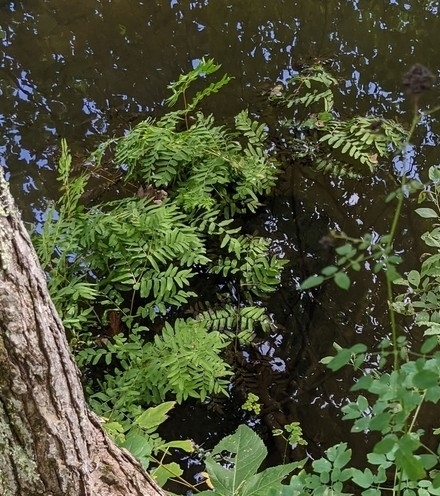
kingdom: Plantae
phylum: Tracheophyta
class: Polypodiopsida
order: Osmundales
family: Osmundaceae
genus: Osmunda
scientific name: Osmunda spectabilis
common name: American royal fern
